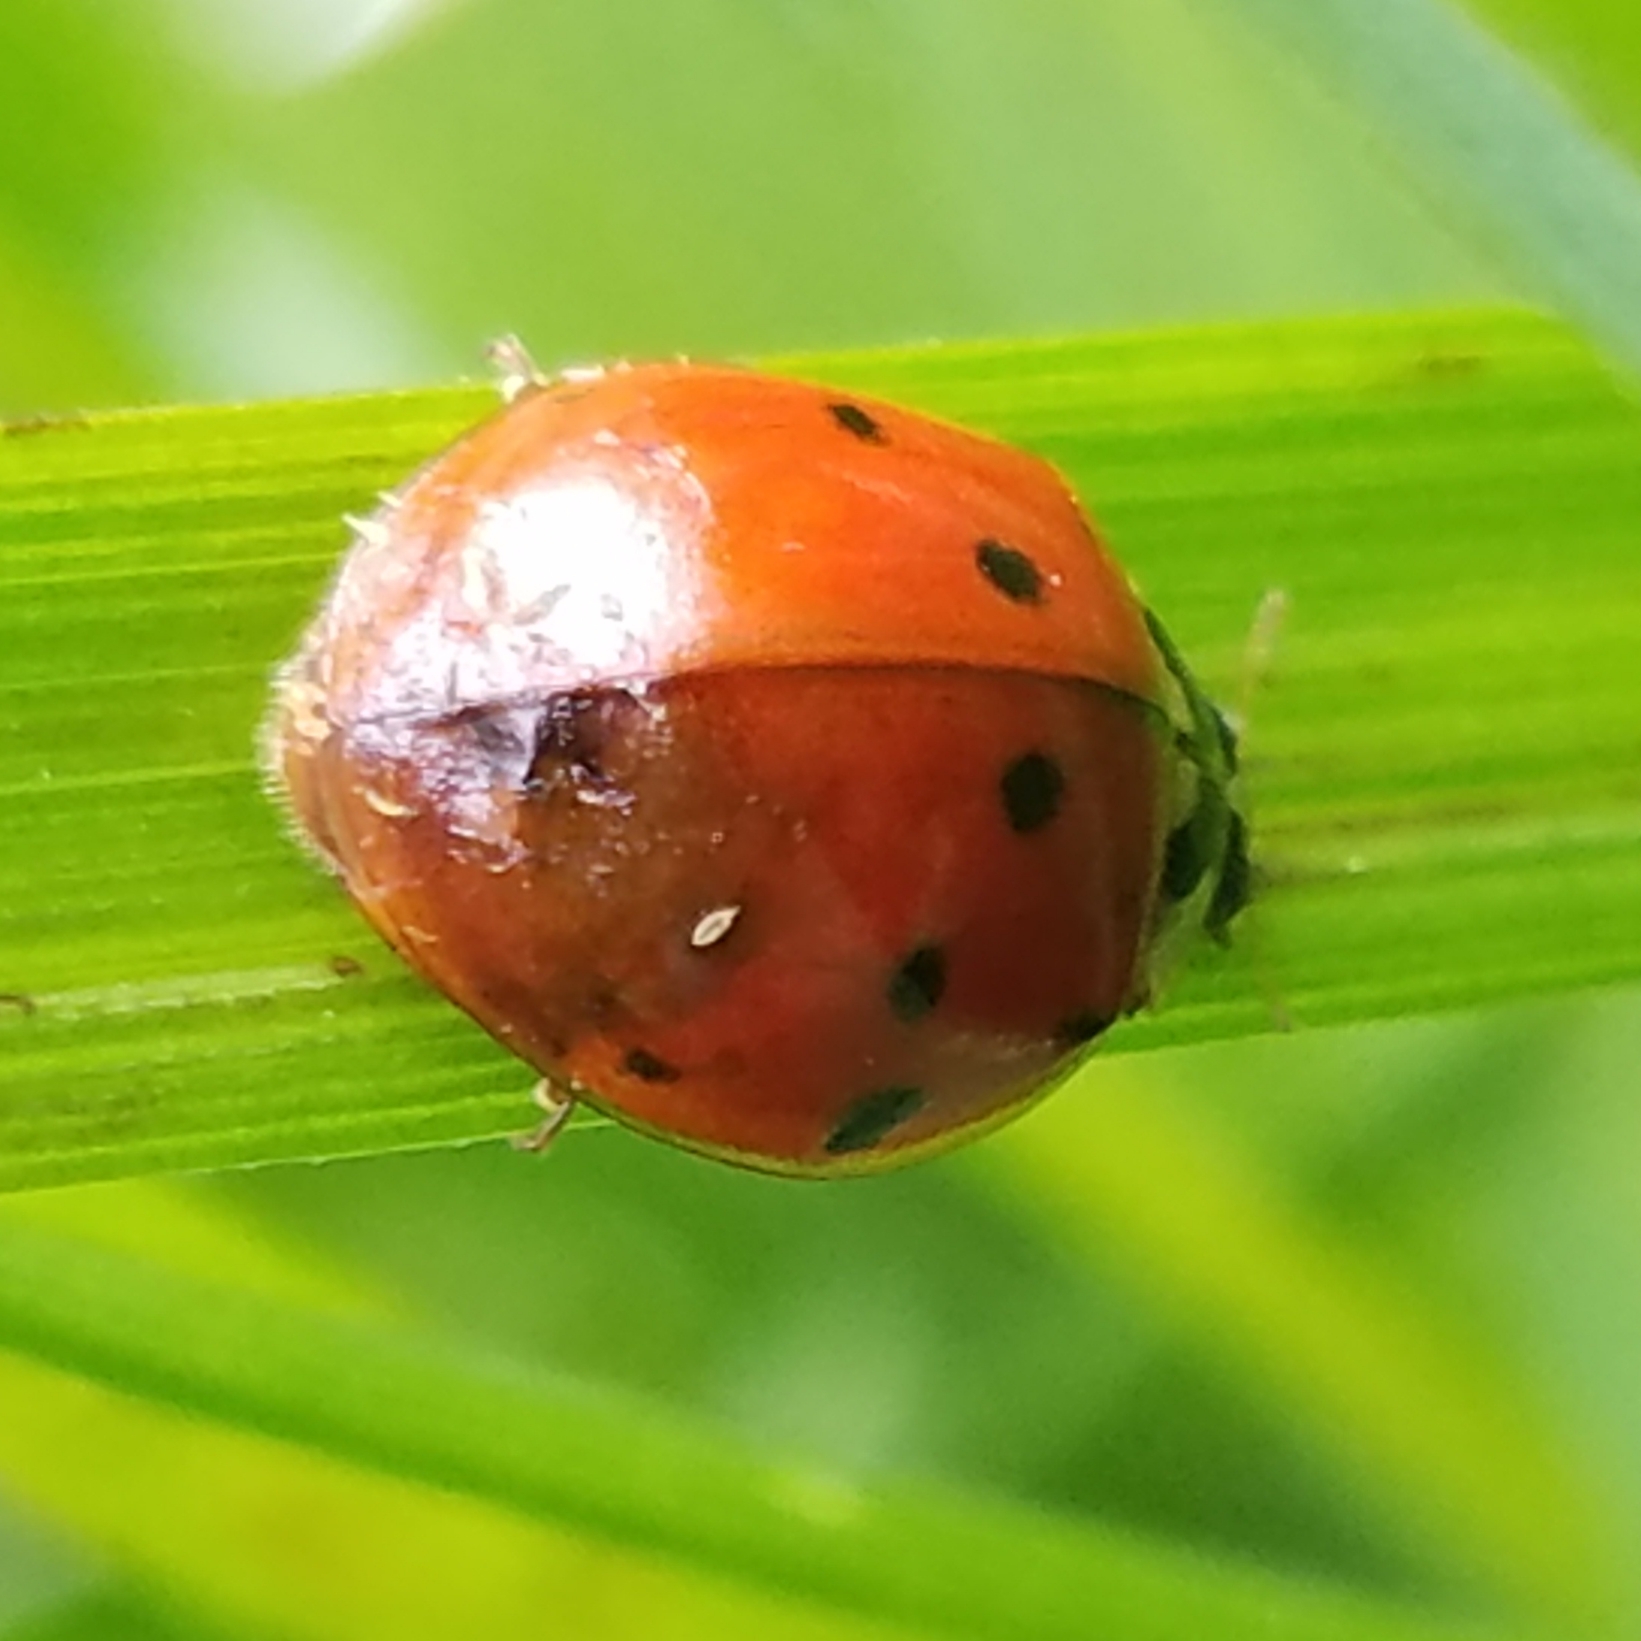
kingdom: Animalia
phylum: Arthropoda
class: Insecta
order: Coleoptera
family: Coccinellidae
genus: Harmonia
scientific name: Harmonia axyridis
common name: Harlequin ladybird
